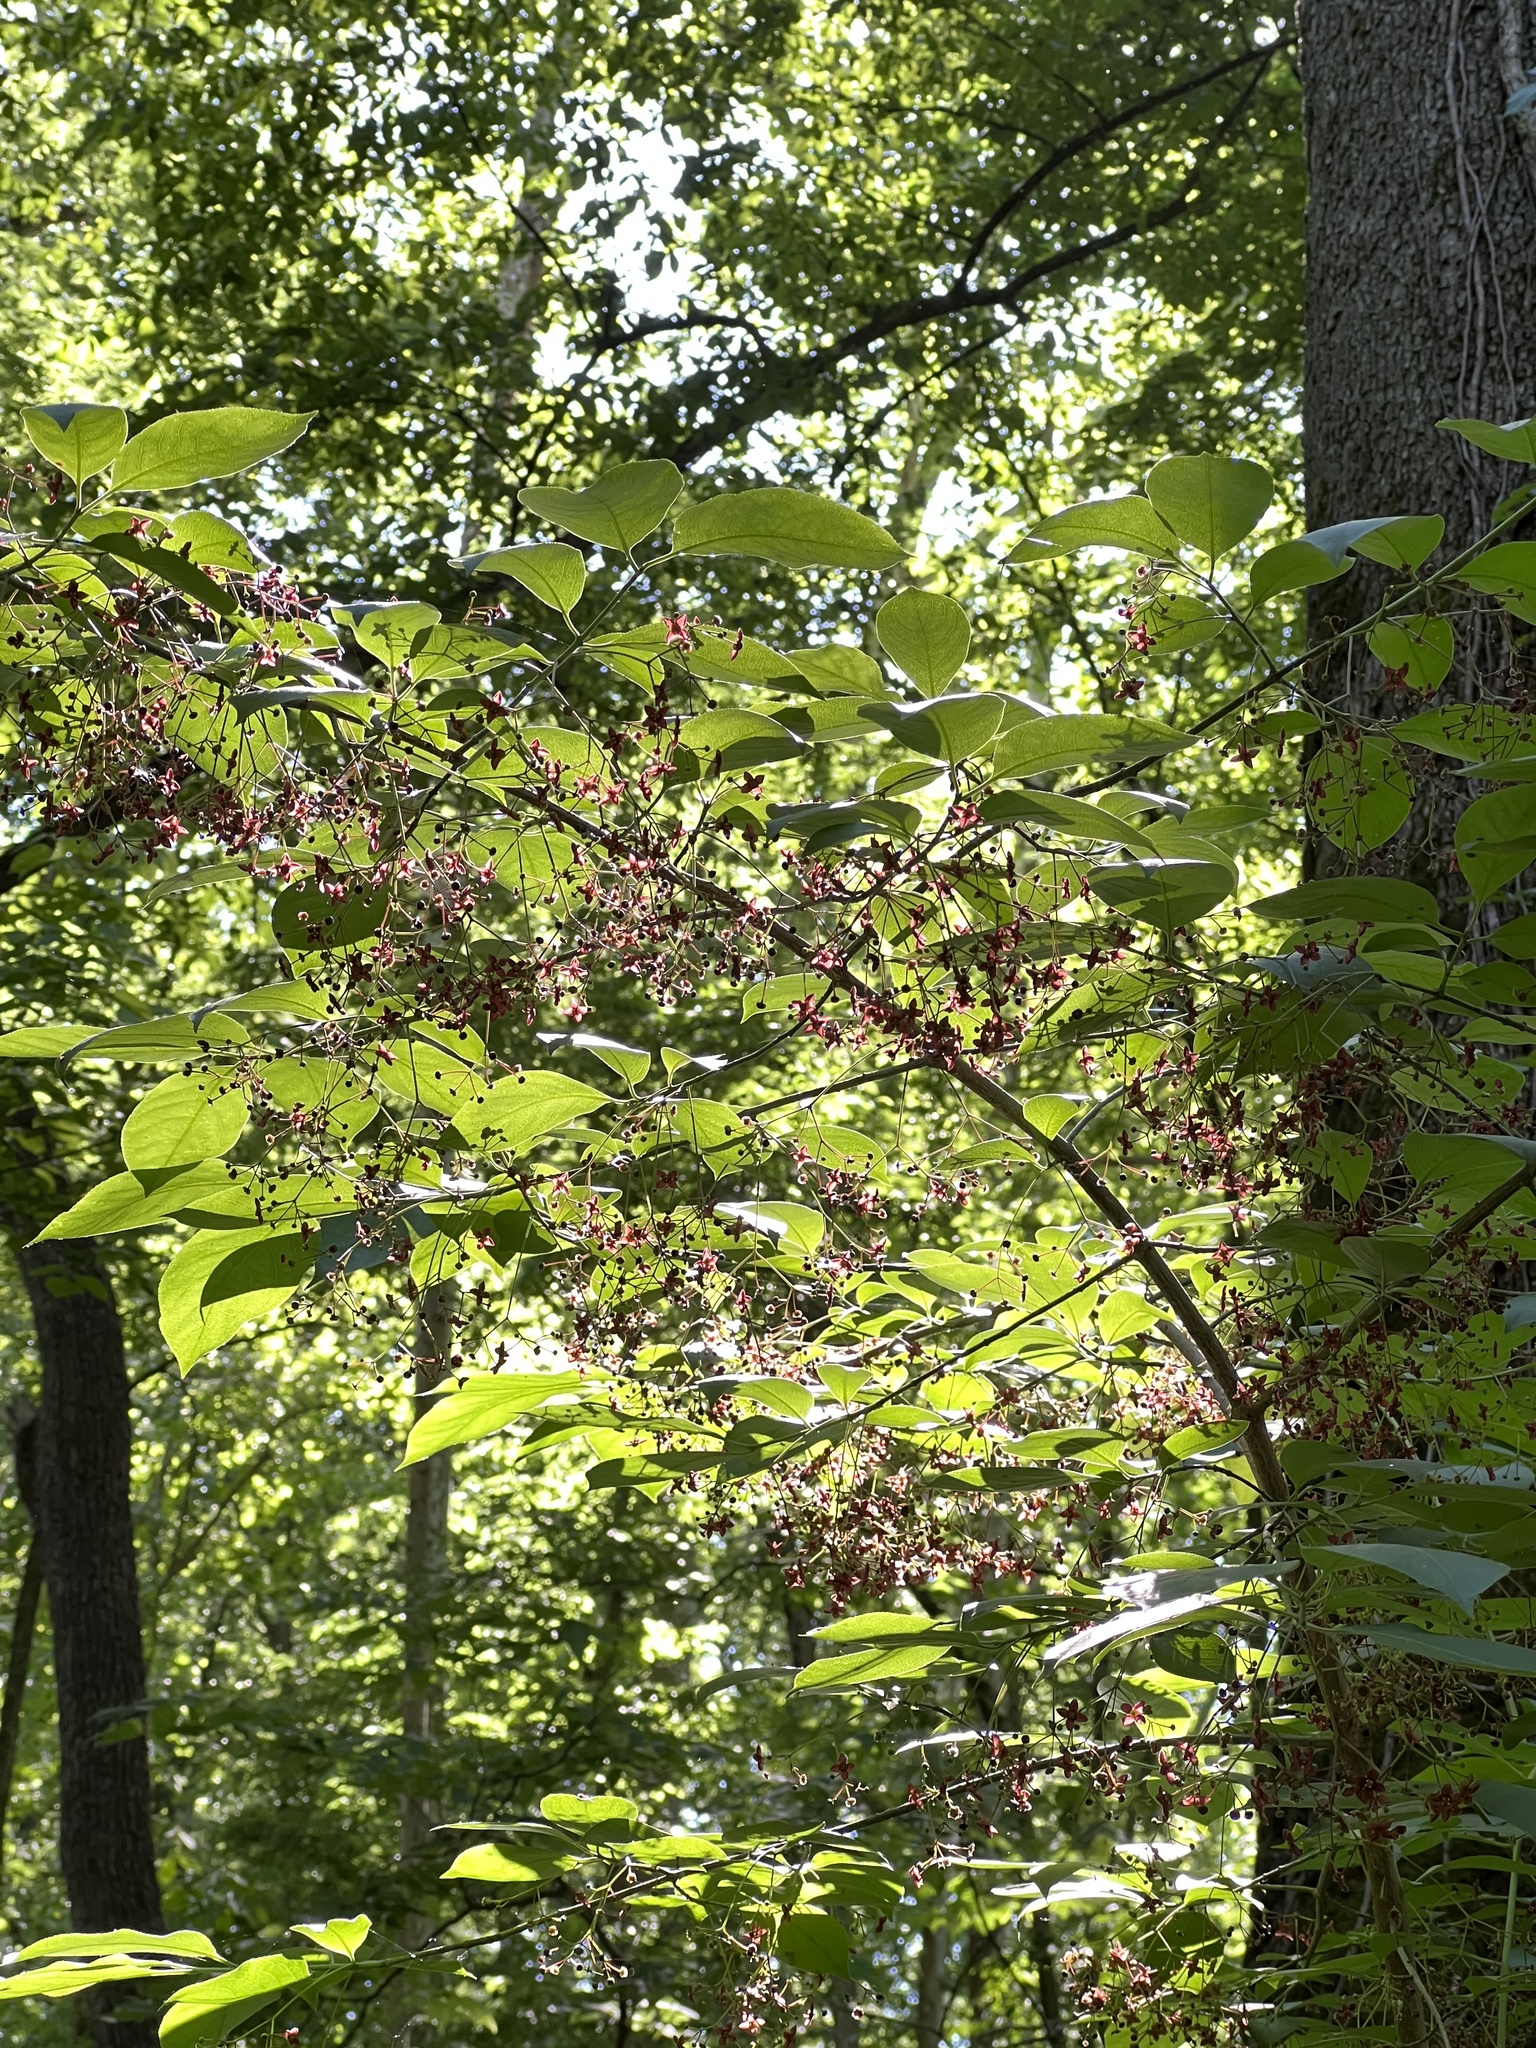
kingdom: Plantae
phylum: Tracheophyta
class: Magnoliopsida
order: Celastrales
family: Celastraceae
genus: Euonymus
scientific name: Euonymus atropurpureus
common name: Eastern wahoo
